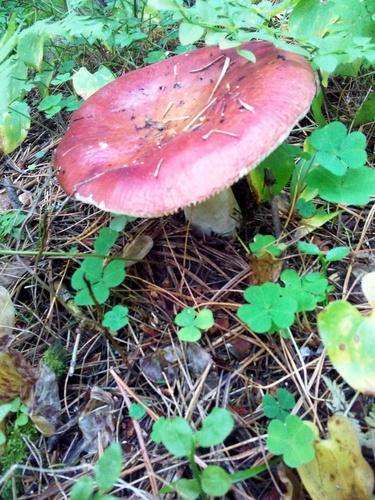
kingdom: Fungi
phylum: Basidiomycota
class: Agaricomycetes
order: Russulales
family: Russulaceae
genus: Russula
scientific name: Russula sanguinea
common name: Bloody brittlegill
